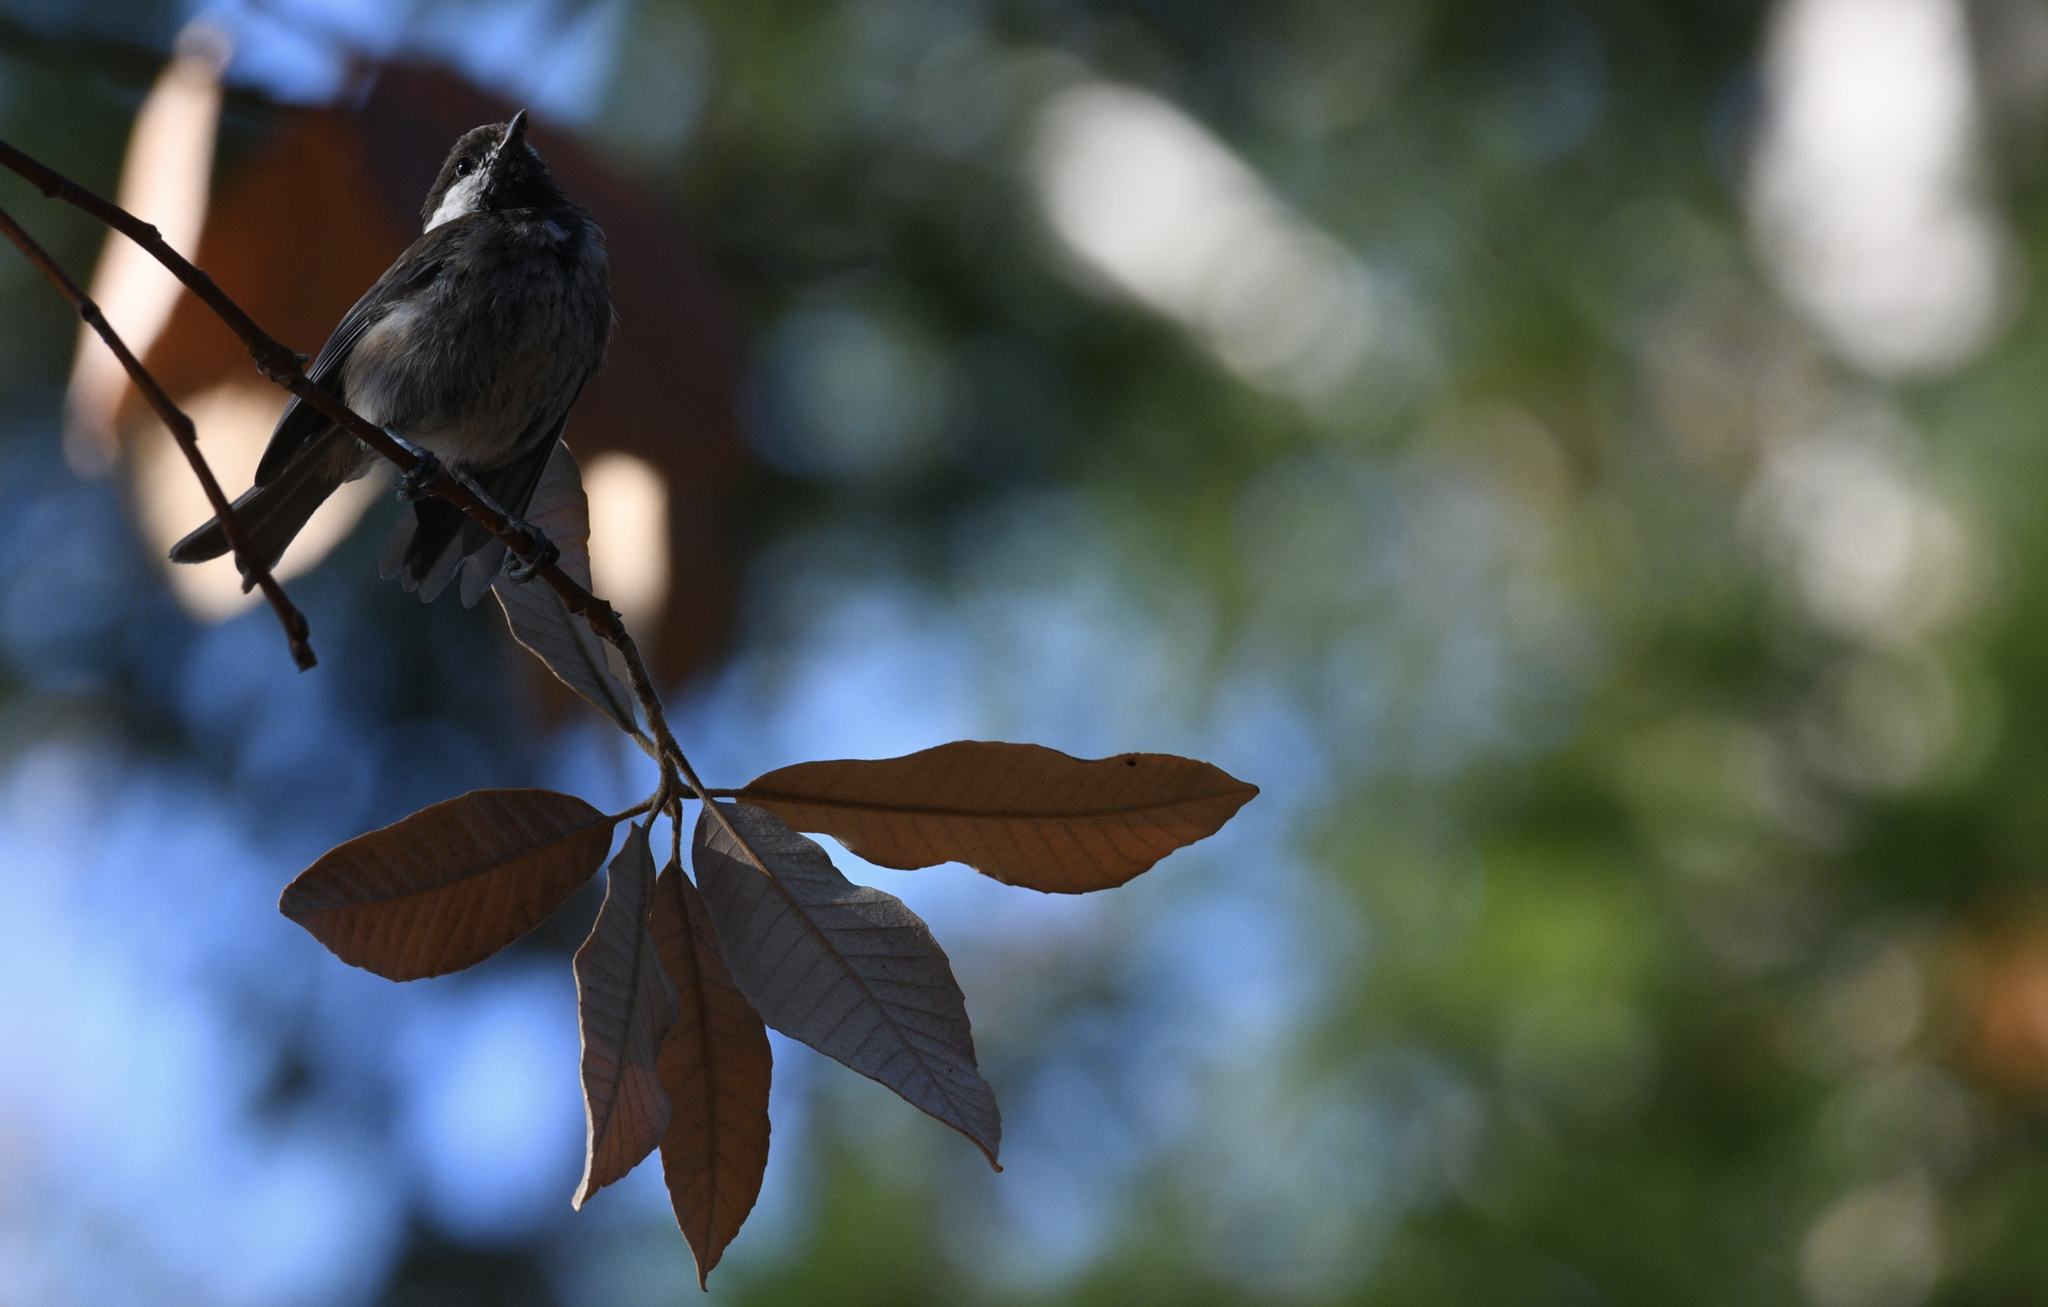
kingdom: Animalia
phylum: Chordata
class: Aves
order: Passeriformes
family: Paridae
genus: Poecile
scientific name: Poecile rufescens
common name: Chestnut-backed chickadee
